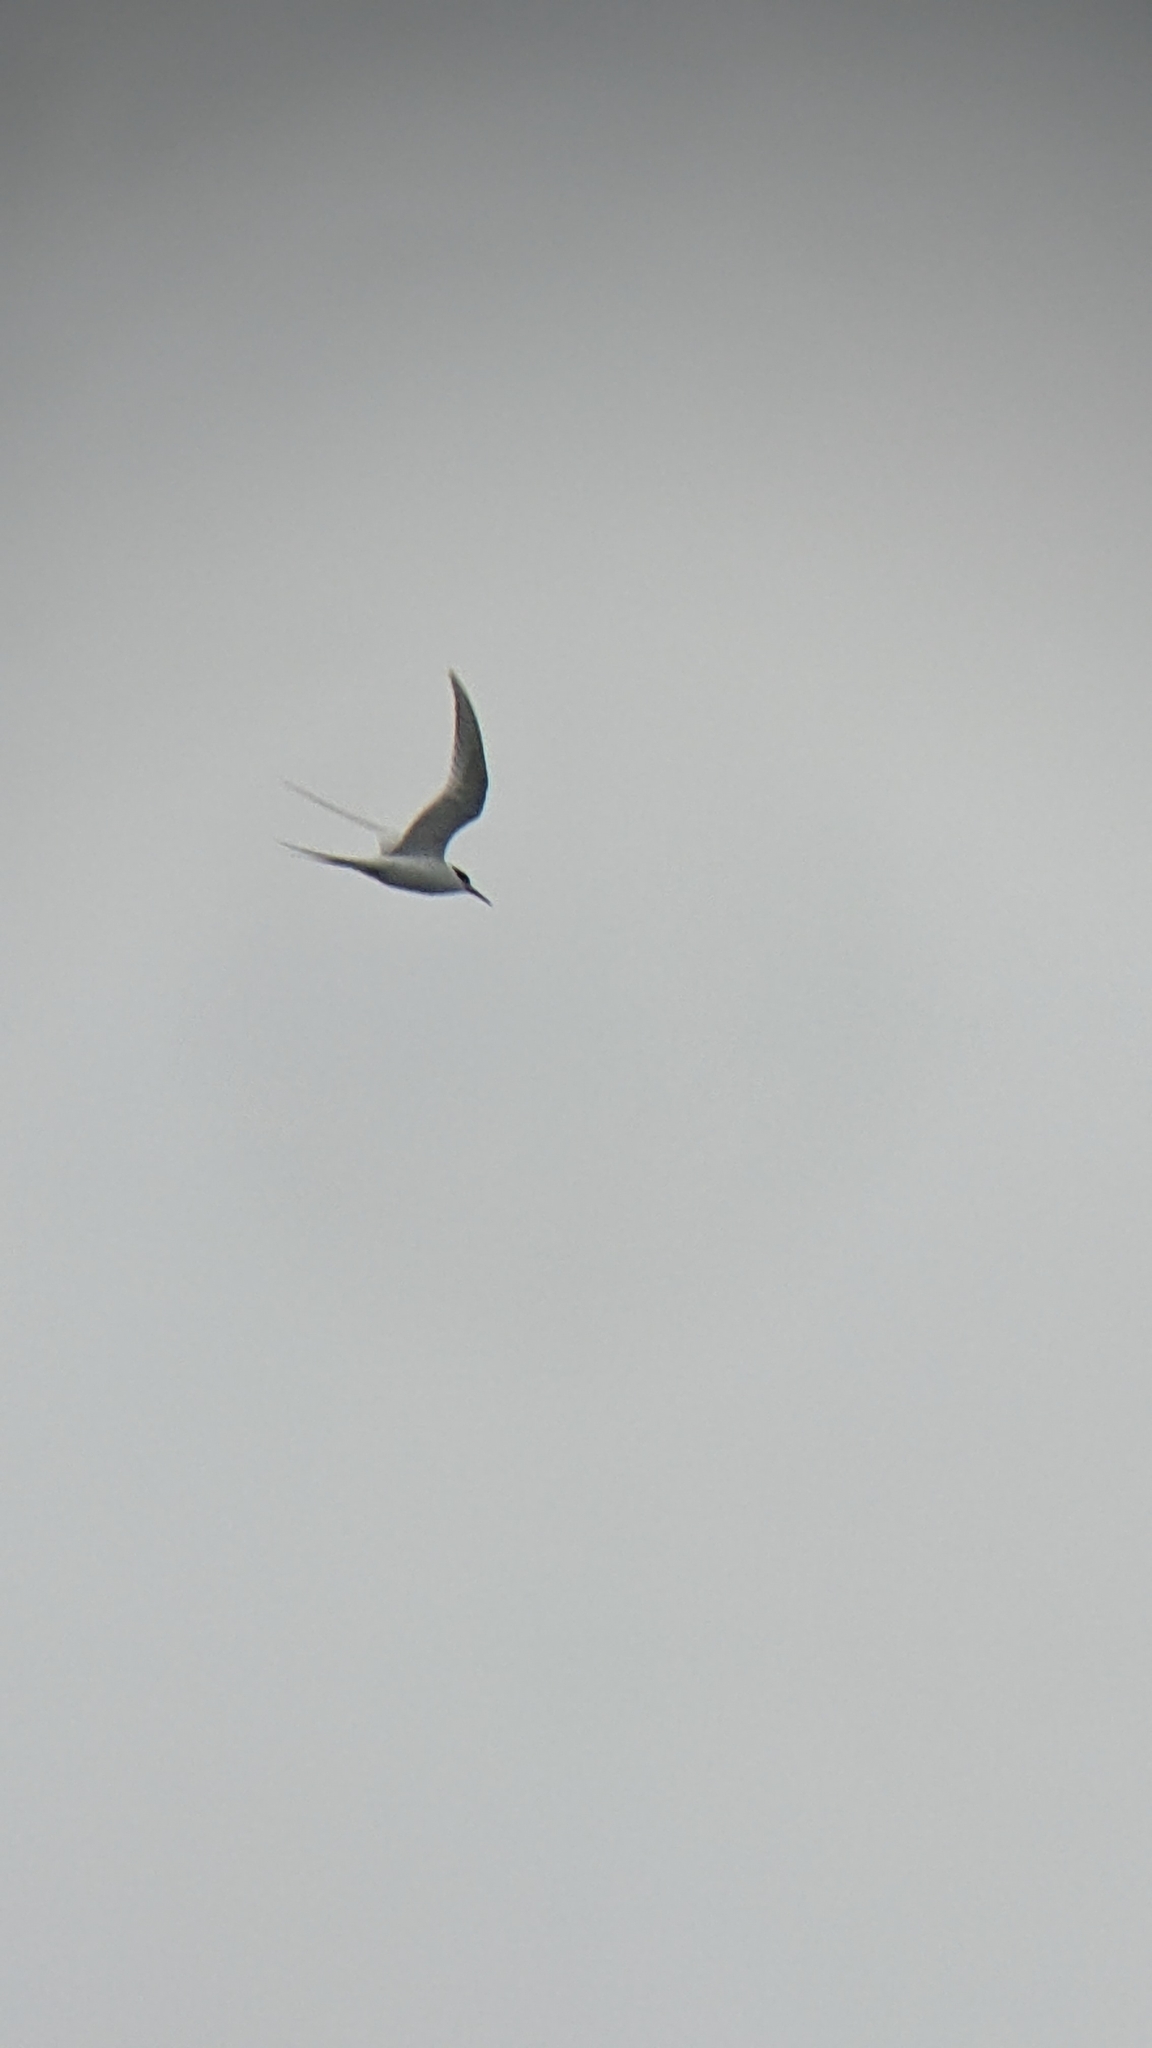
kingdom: Animalia
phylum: Chordata
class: Aves
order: Charadriiformes
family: Laridae
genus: Sterna
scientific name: Sterna striata
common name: White-fronted tern
